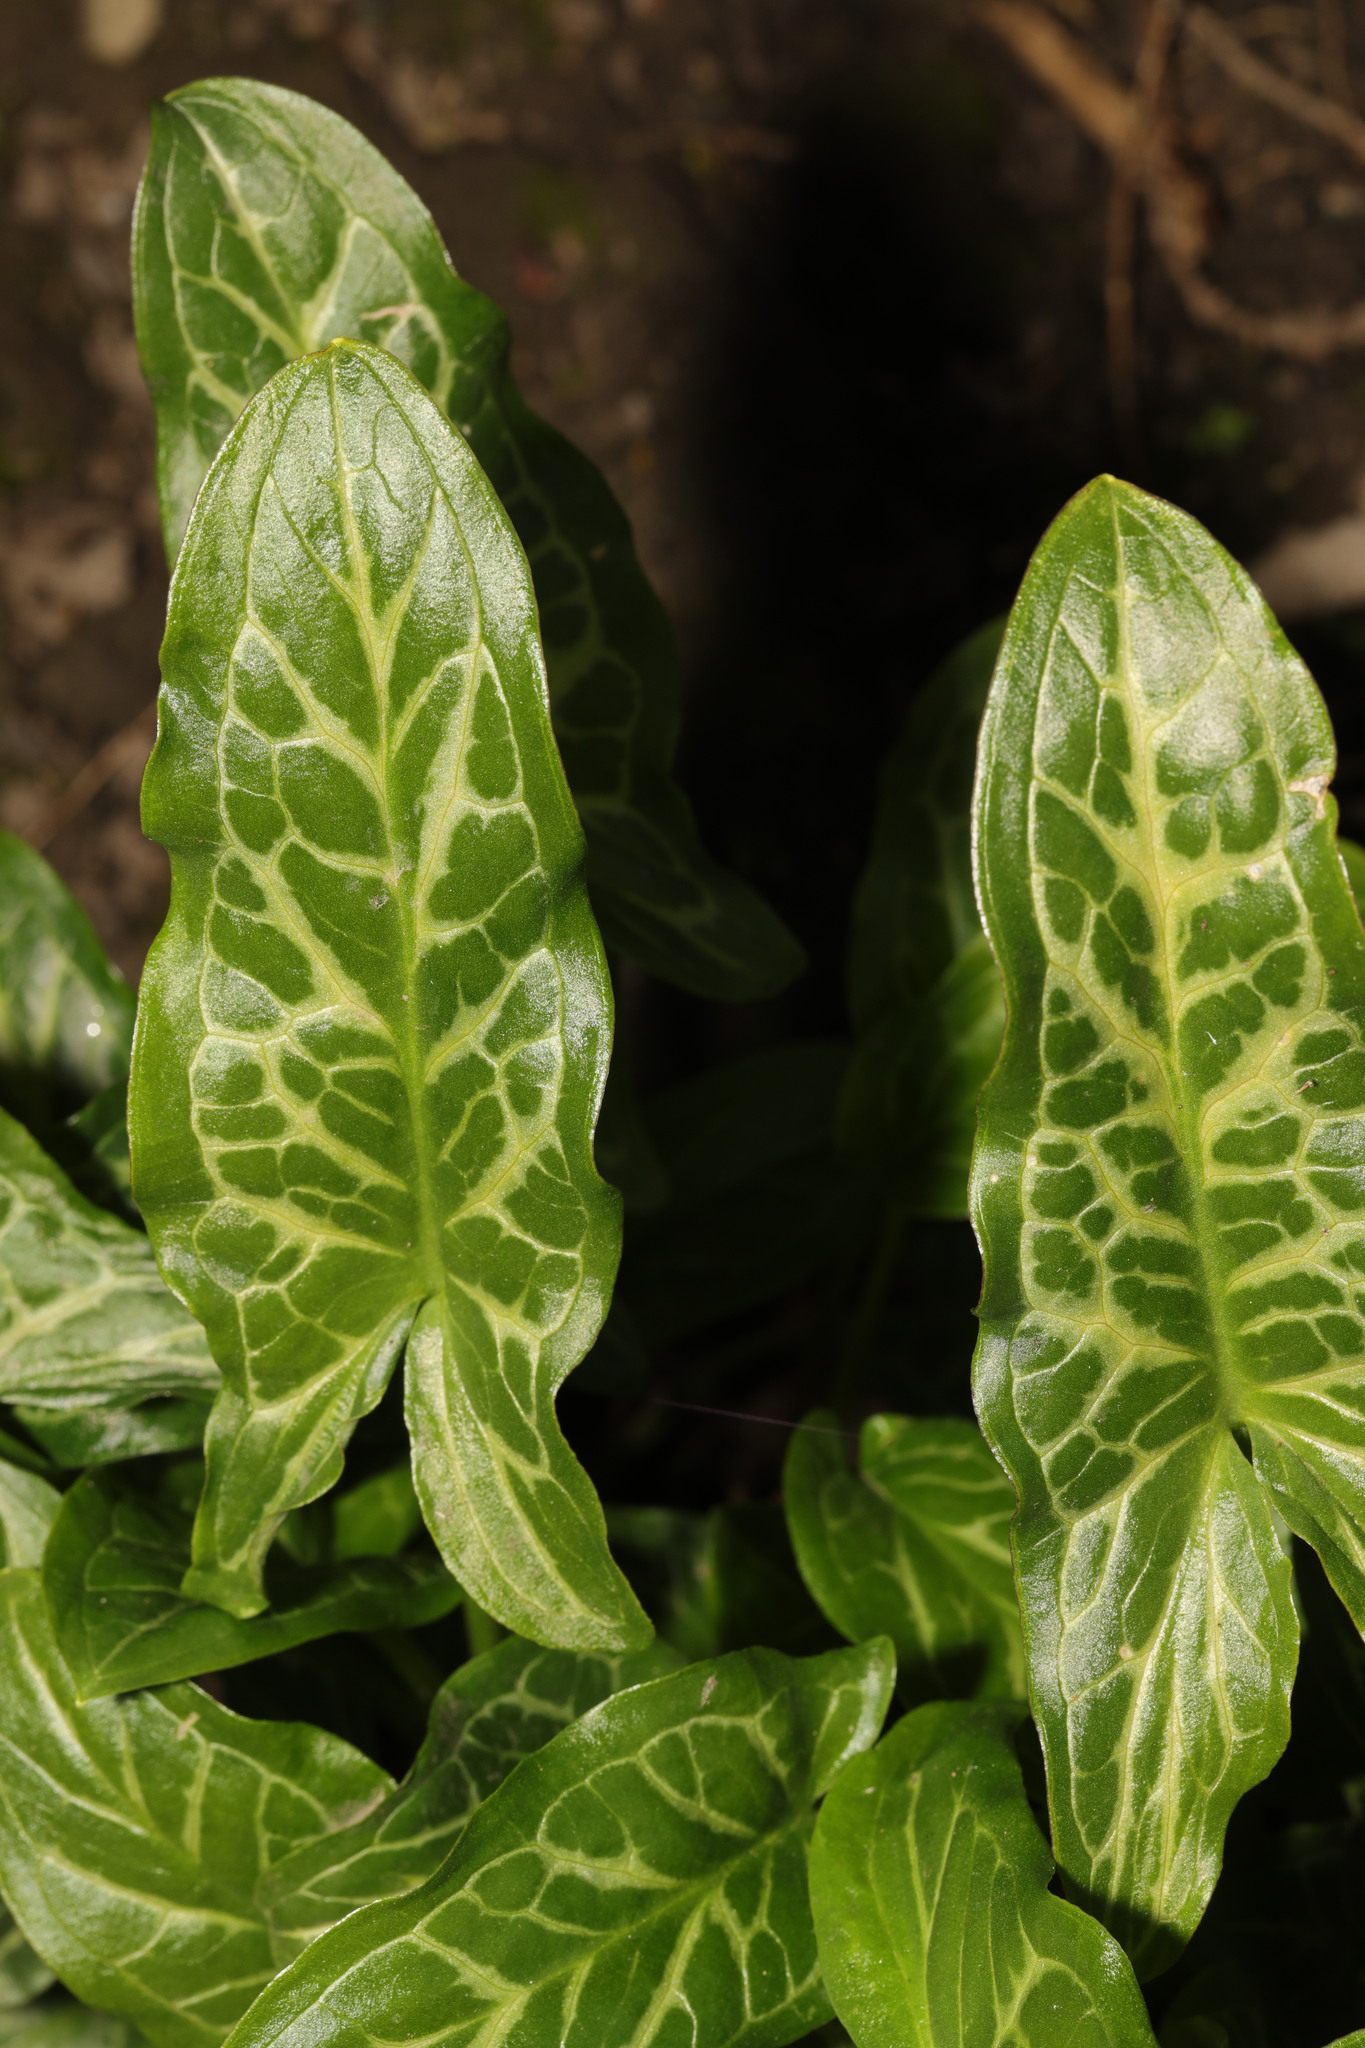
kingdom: Plantae
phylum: Tracheophyta
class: Liliopsida
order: Alismatales
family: Araceae
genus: Arum
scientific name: Arum italicum
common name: Italian lords-and-ladies
